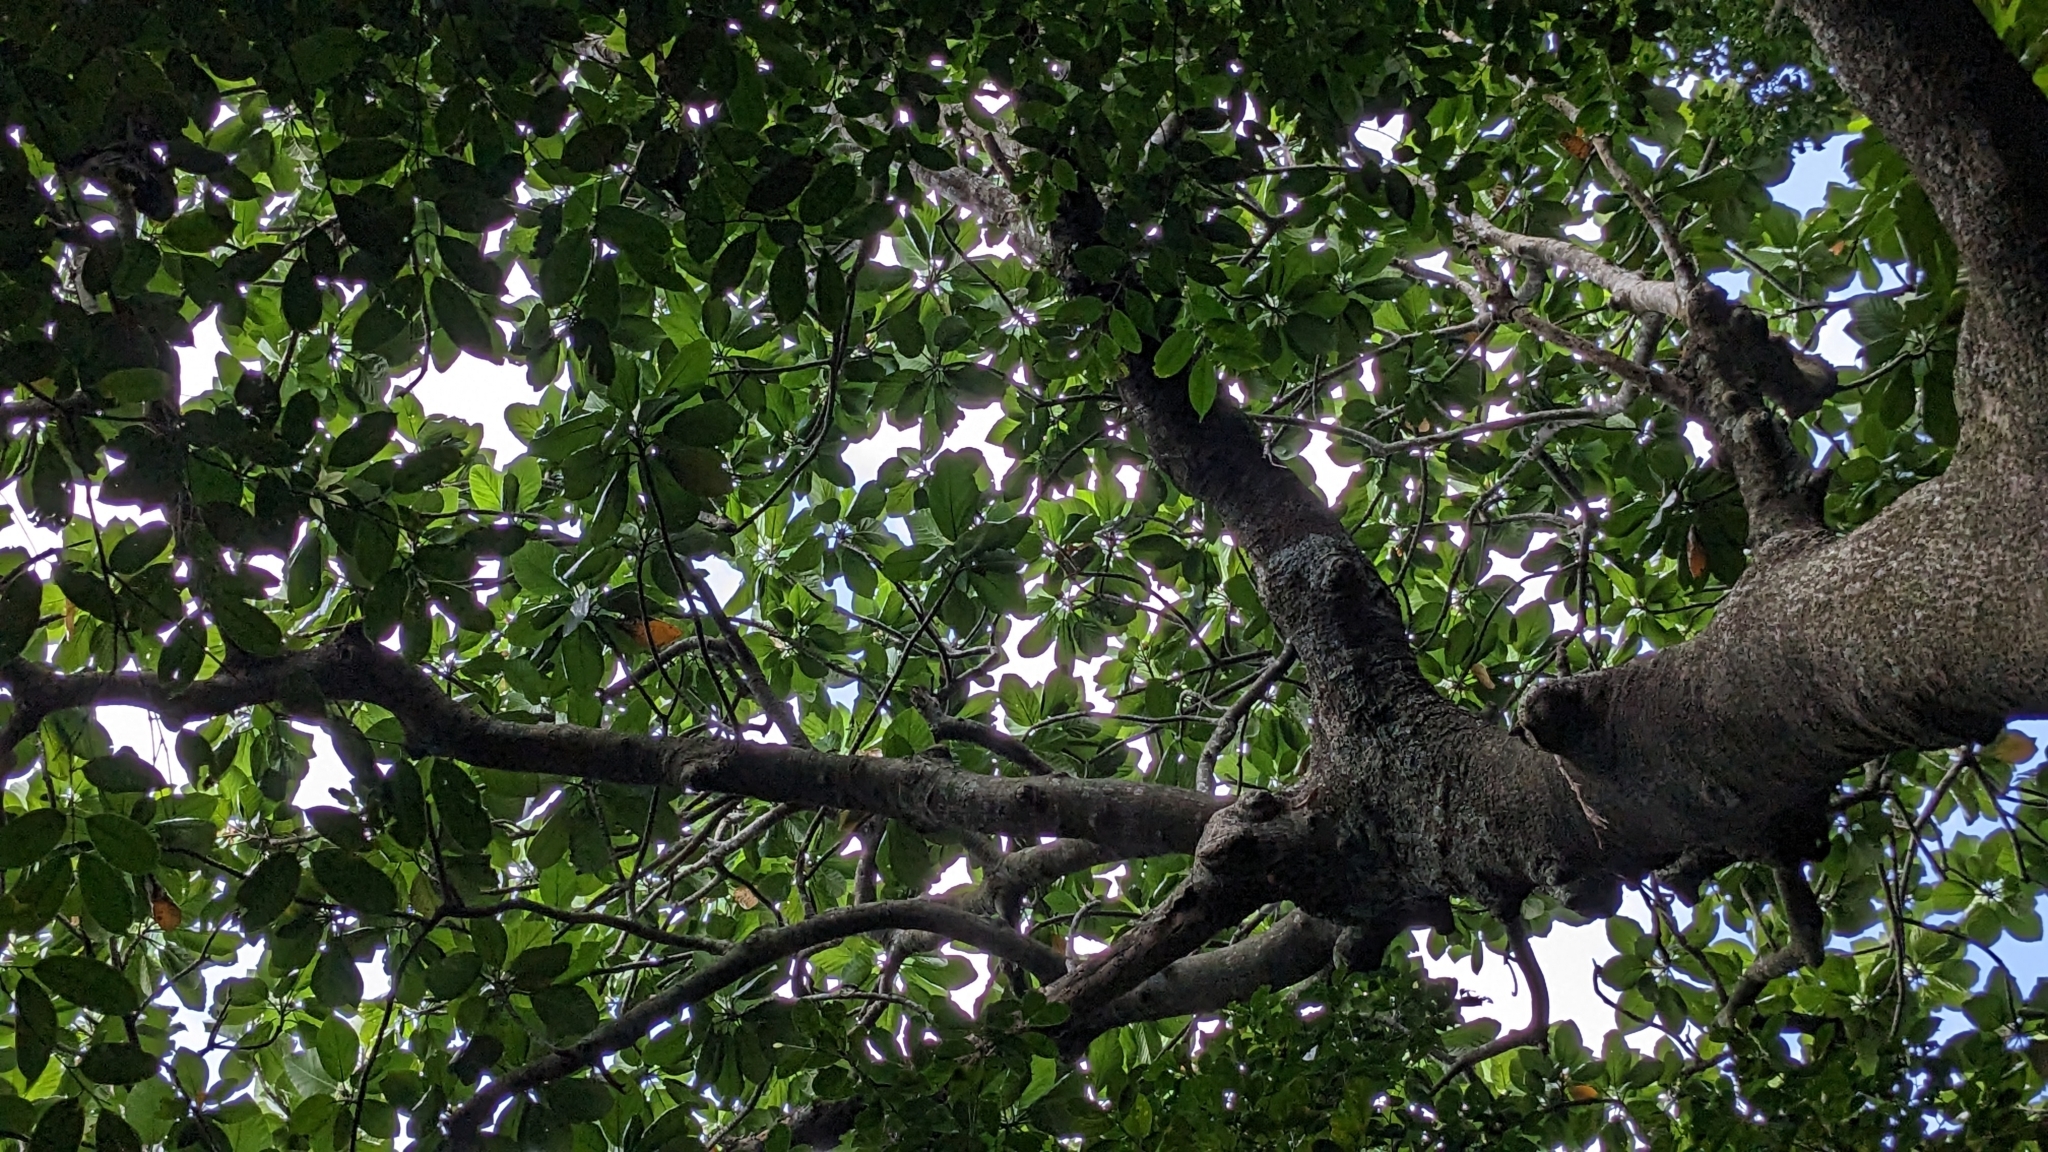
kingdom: Plantae
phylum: Tracheophyta
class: Magnoliopsida
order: Rosales
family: Moraceae
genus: Artocarpus
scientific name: Artocarpus treculianus
